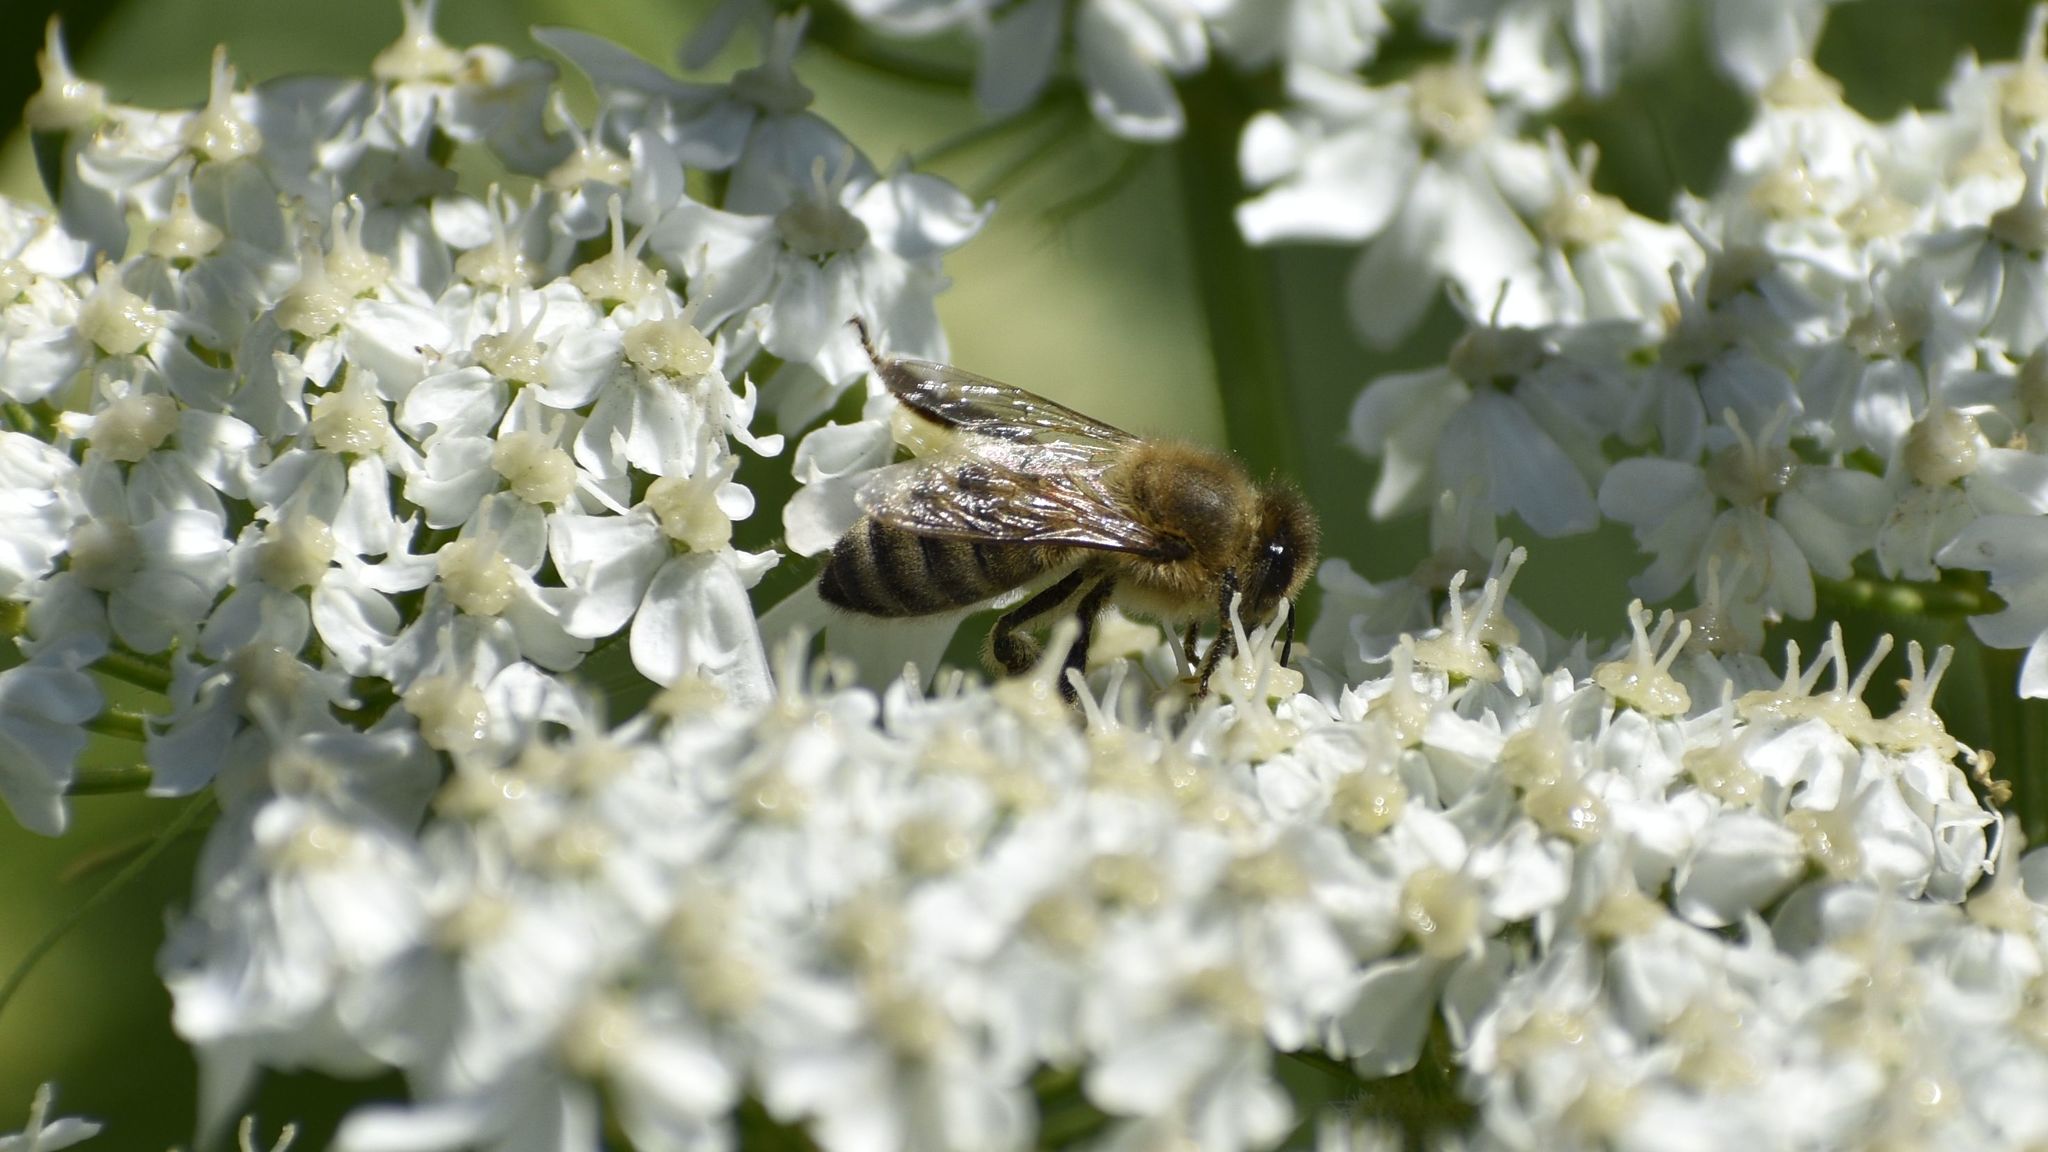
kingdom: Animalia
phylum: Arthropoda
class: Insecta
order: Hymenoptera
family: Apidae
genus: Apis
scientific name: Apis mellifera
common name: Honey bee
